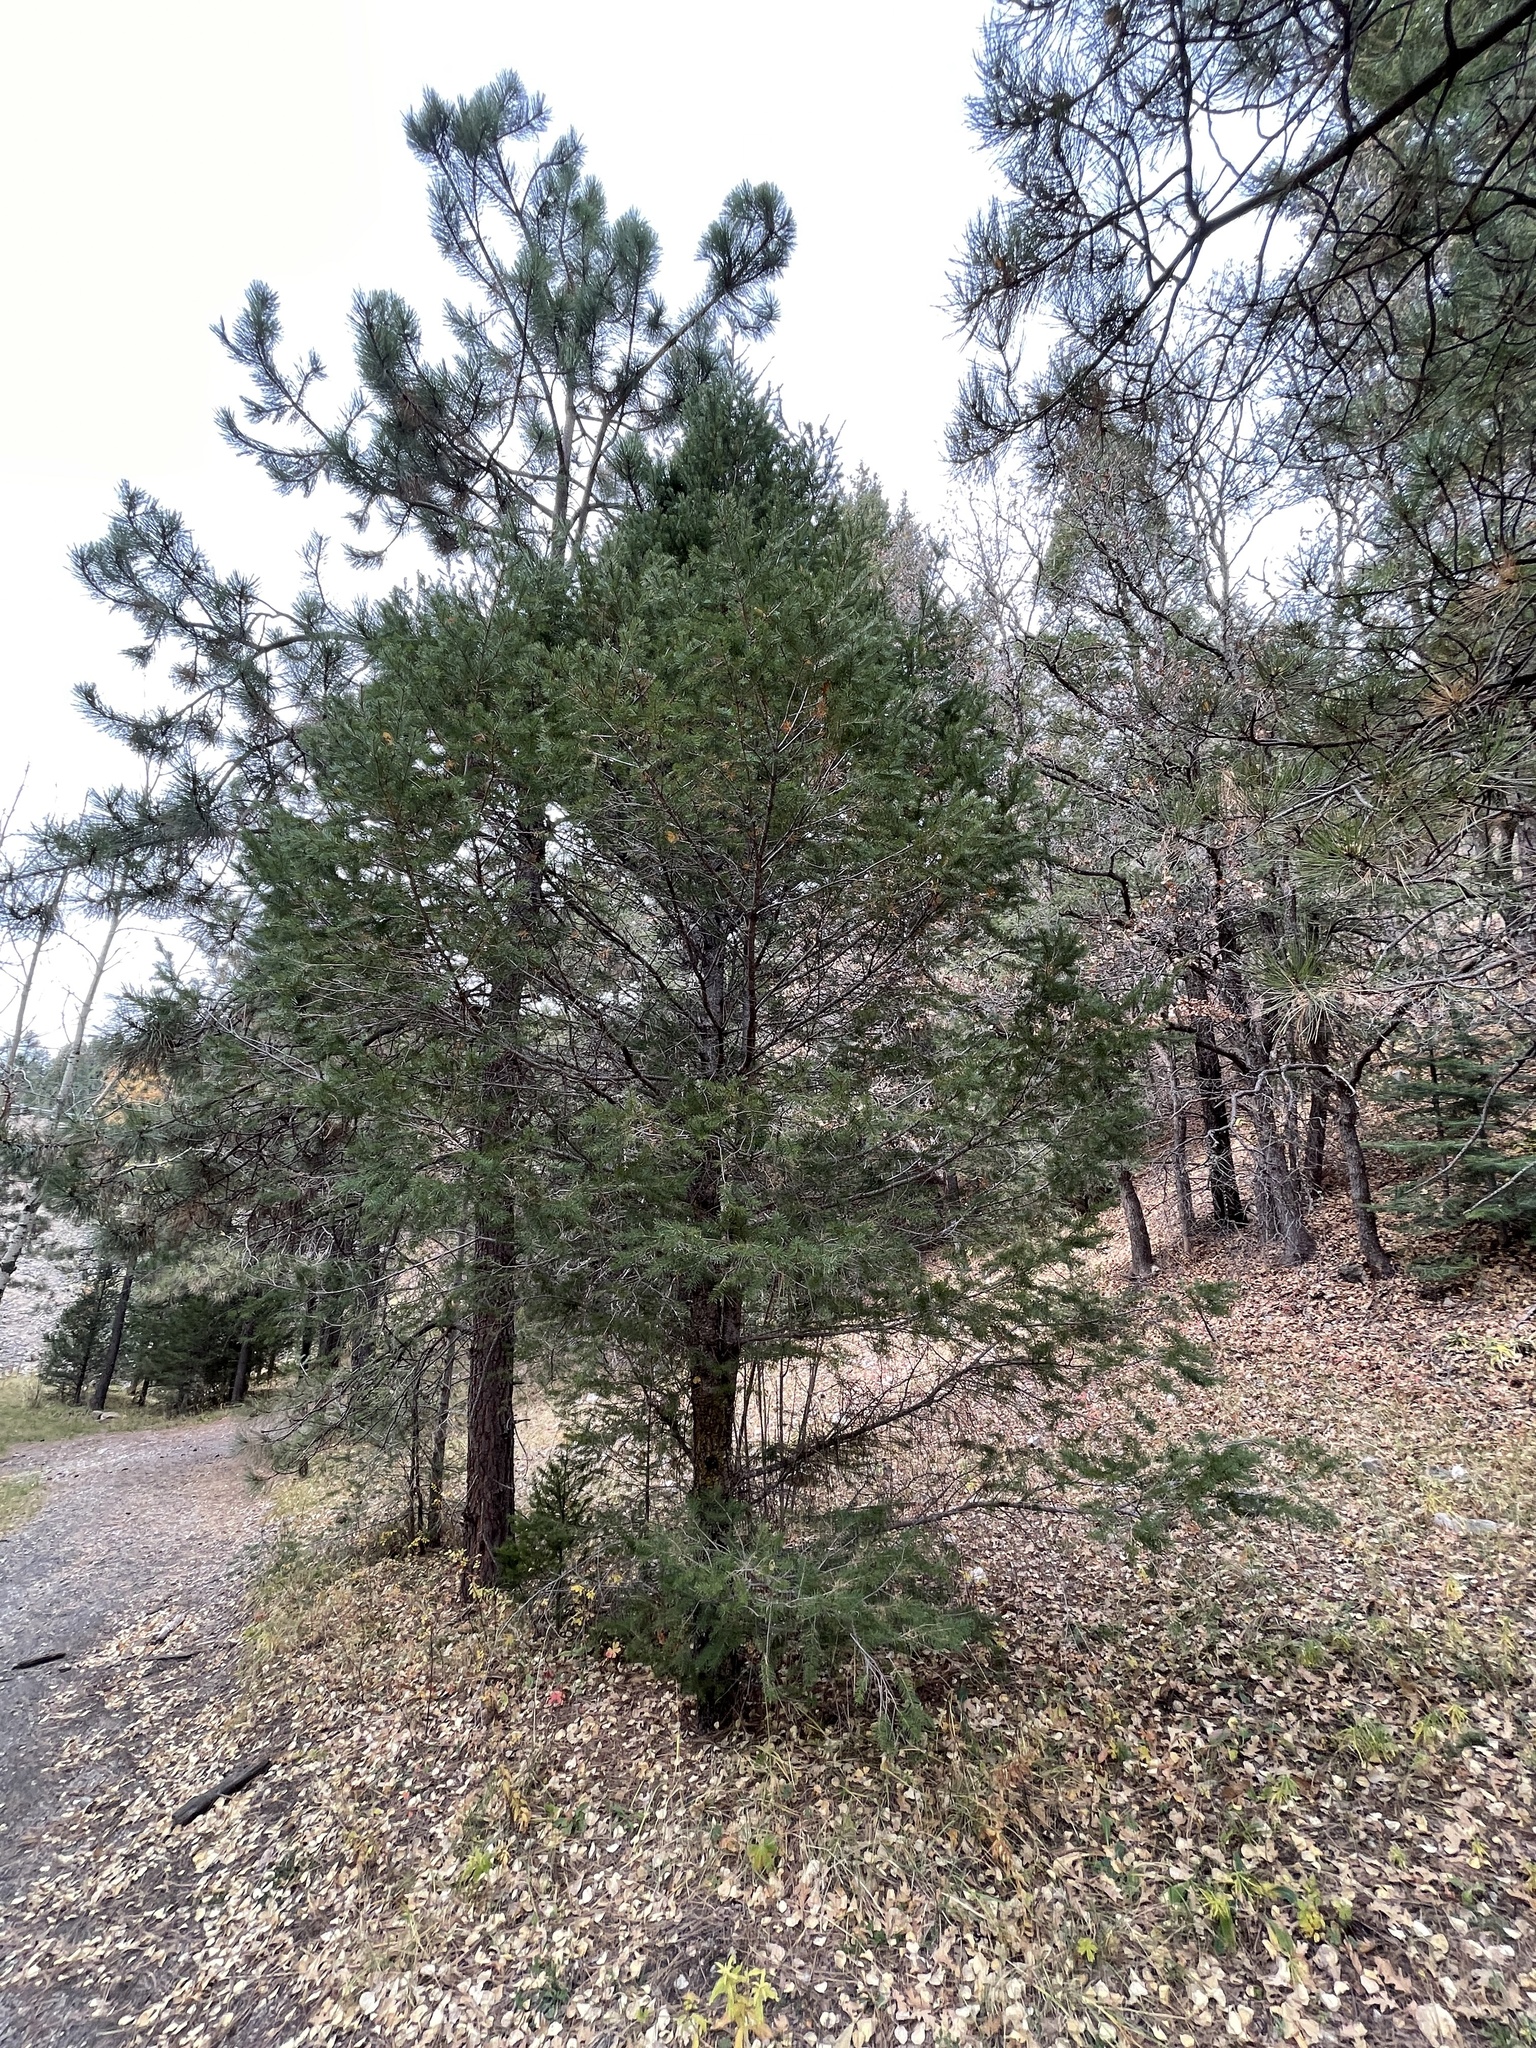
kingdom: Plantae
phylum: Tracheophyta
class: Pinopsida
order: Pinales
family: Pinaceae
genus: Pseudotsuga
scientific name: Pseudotsuga menziesii
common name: Douglas fir
